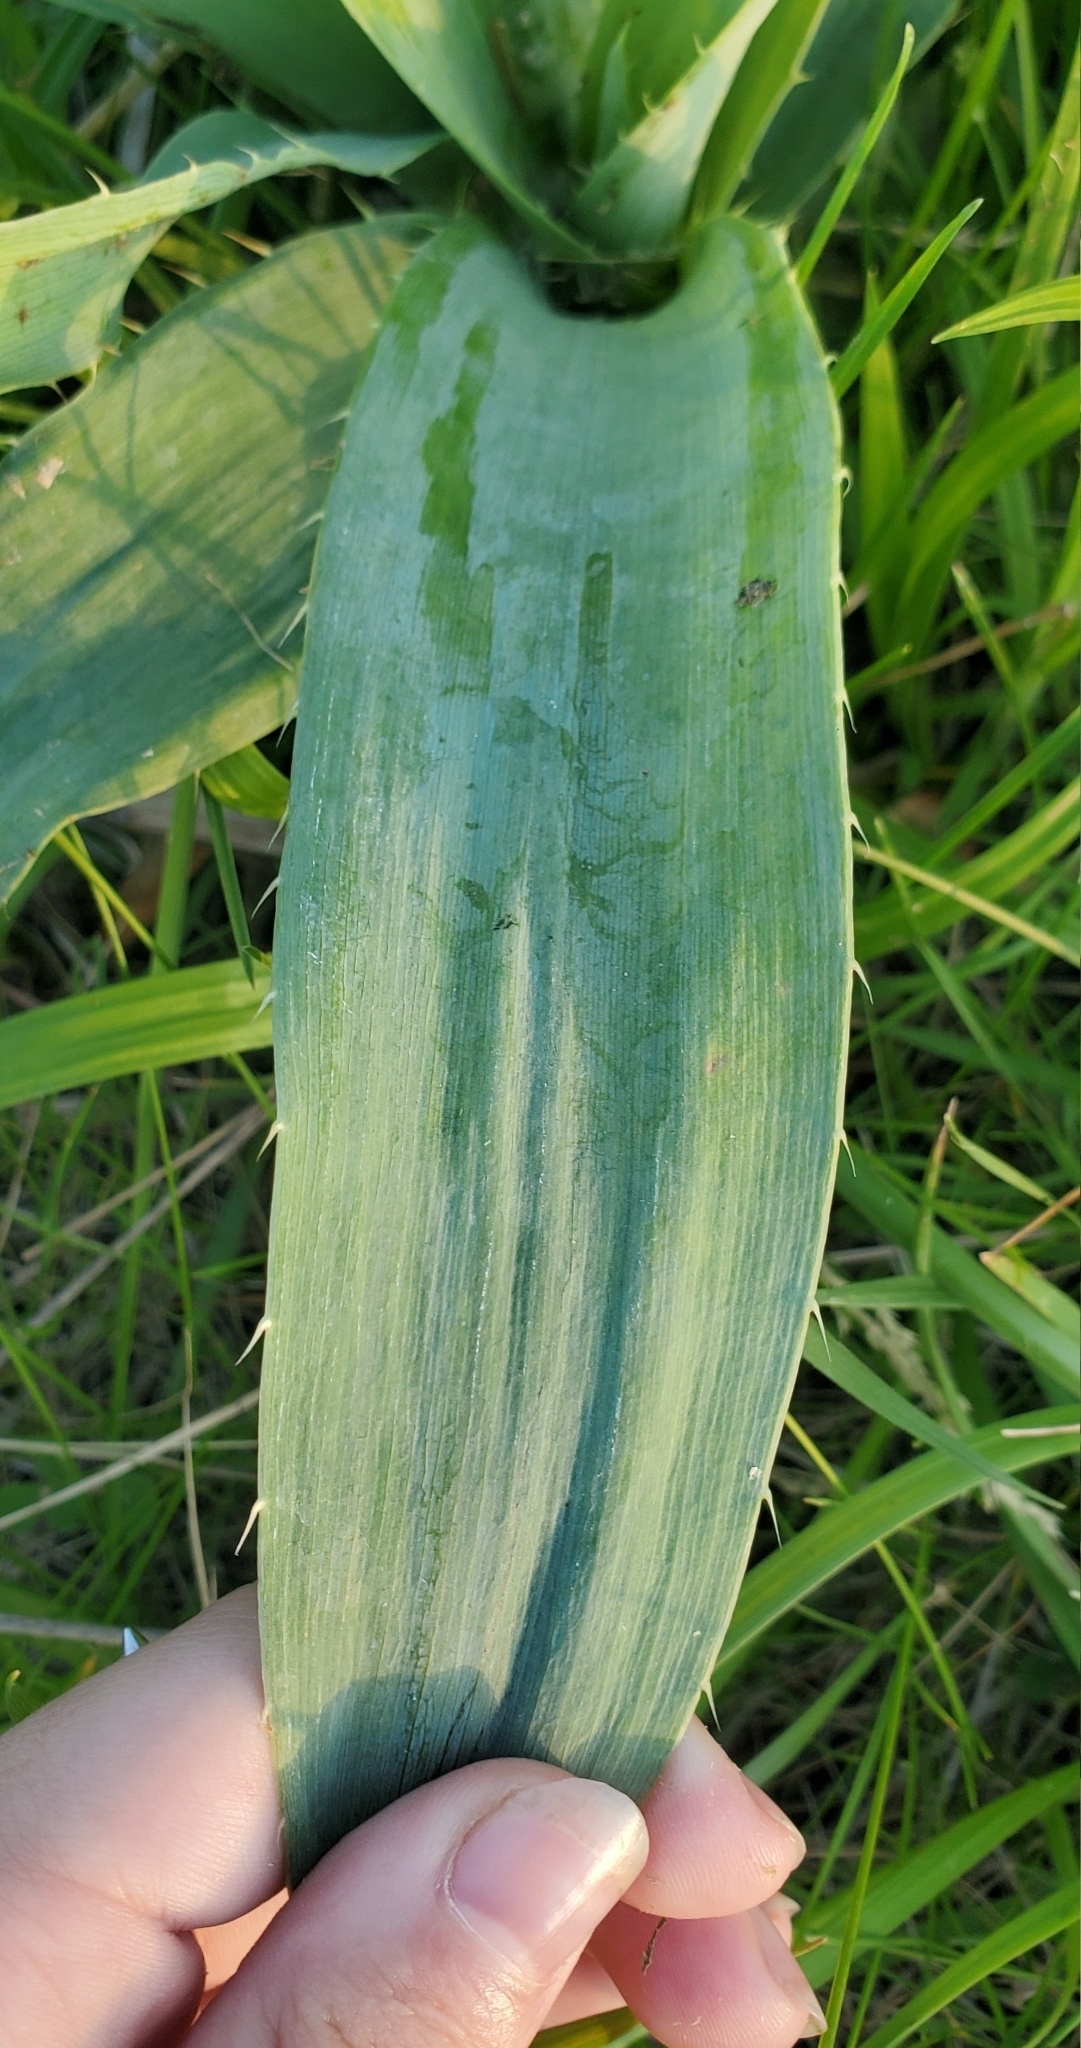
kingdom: Plantae
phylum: Tracheophyta
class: Magnoliopsida
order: Apiales
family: Apiaceae
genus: Eryngium
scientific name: Eryngium yuccifolium
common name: Button eryngo
